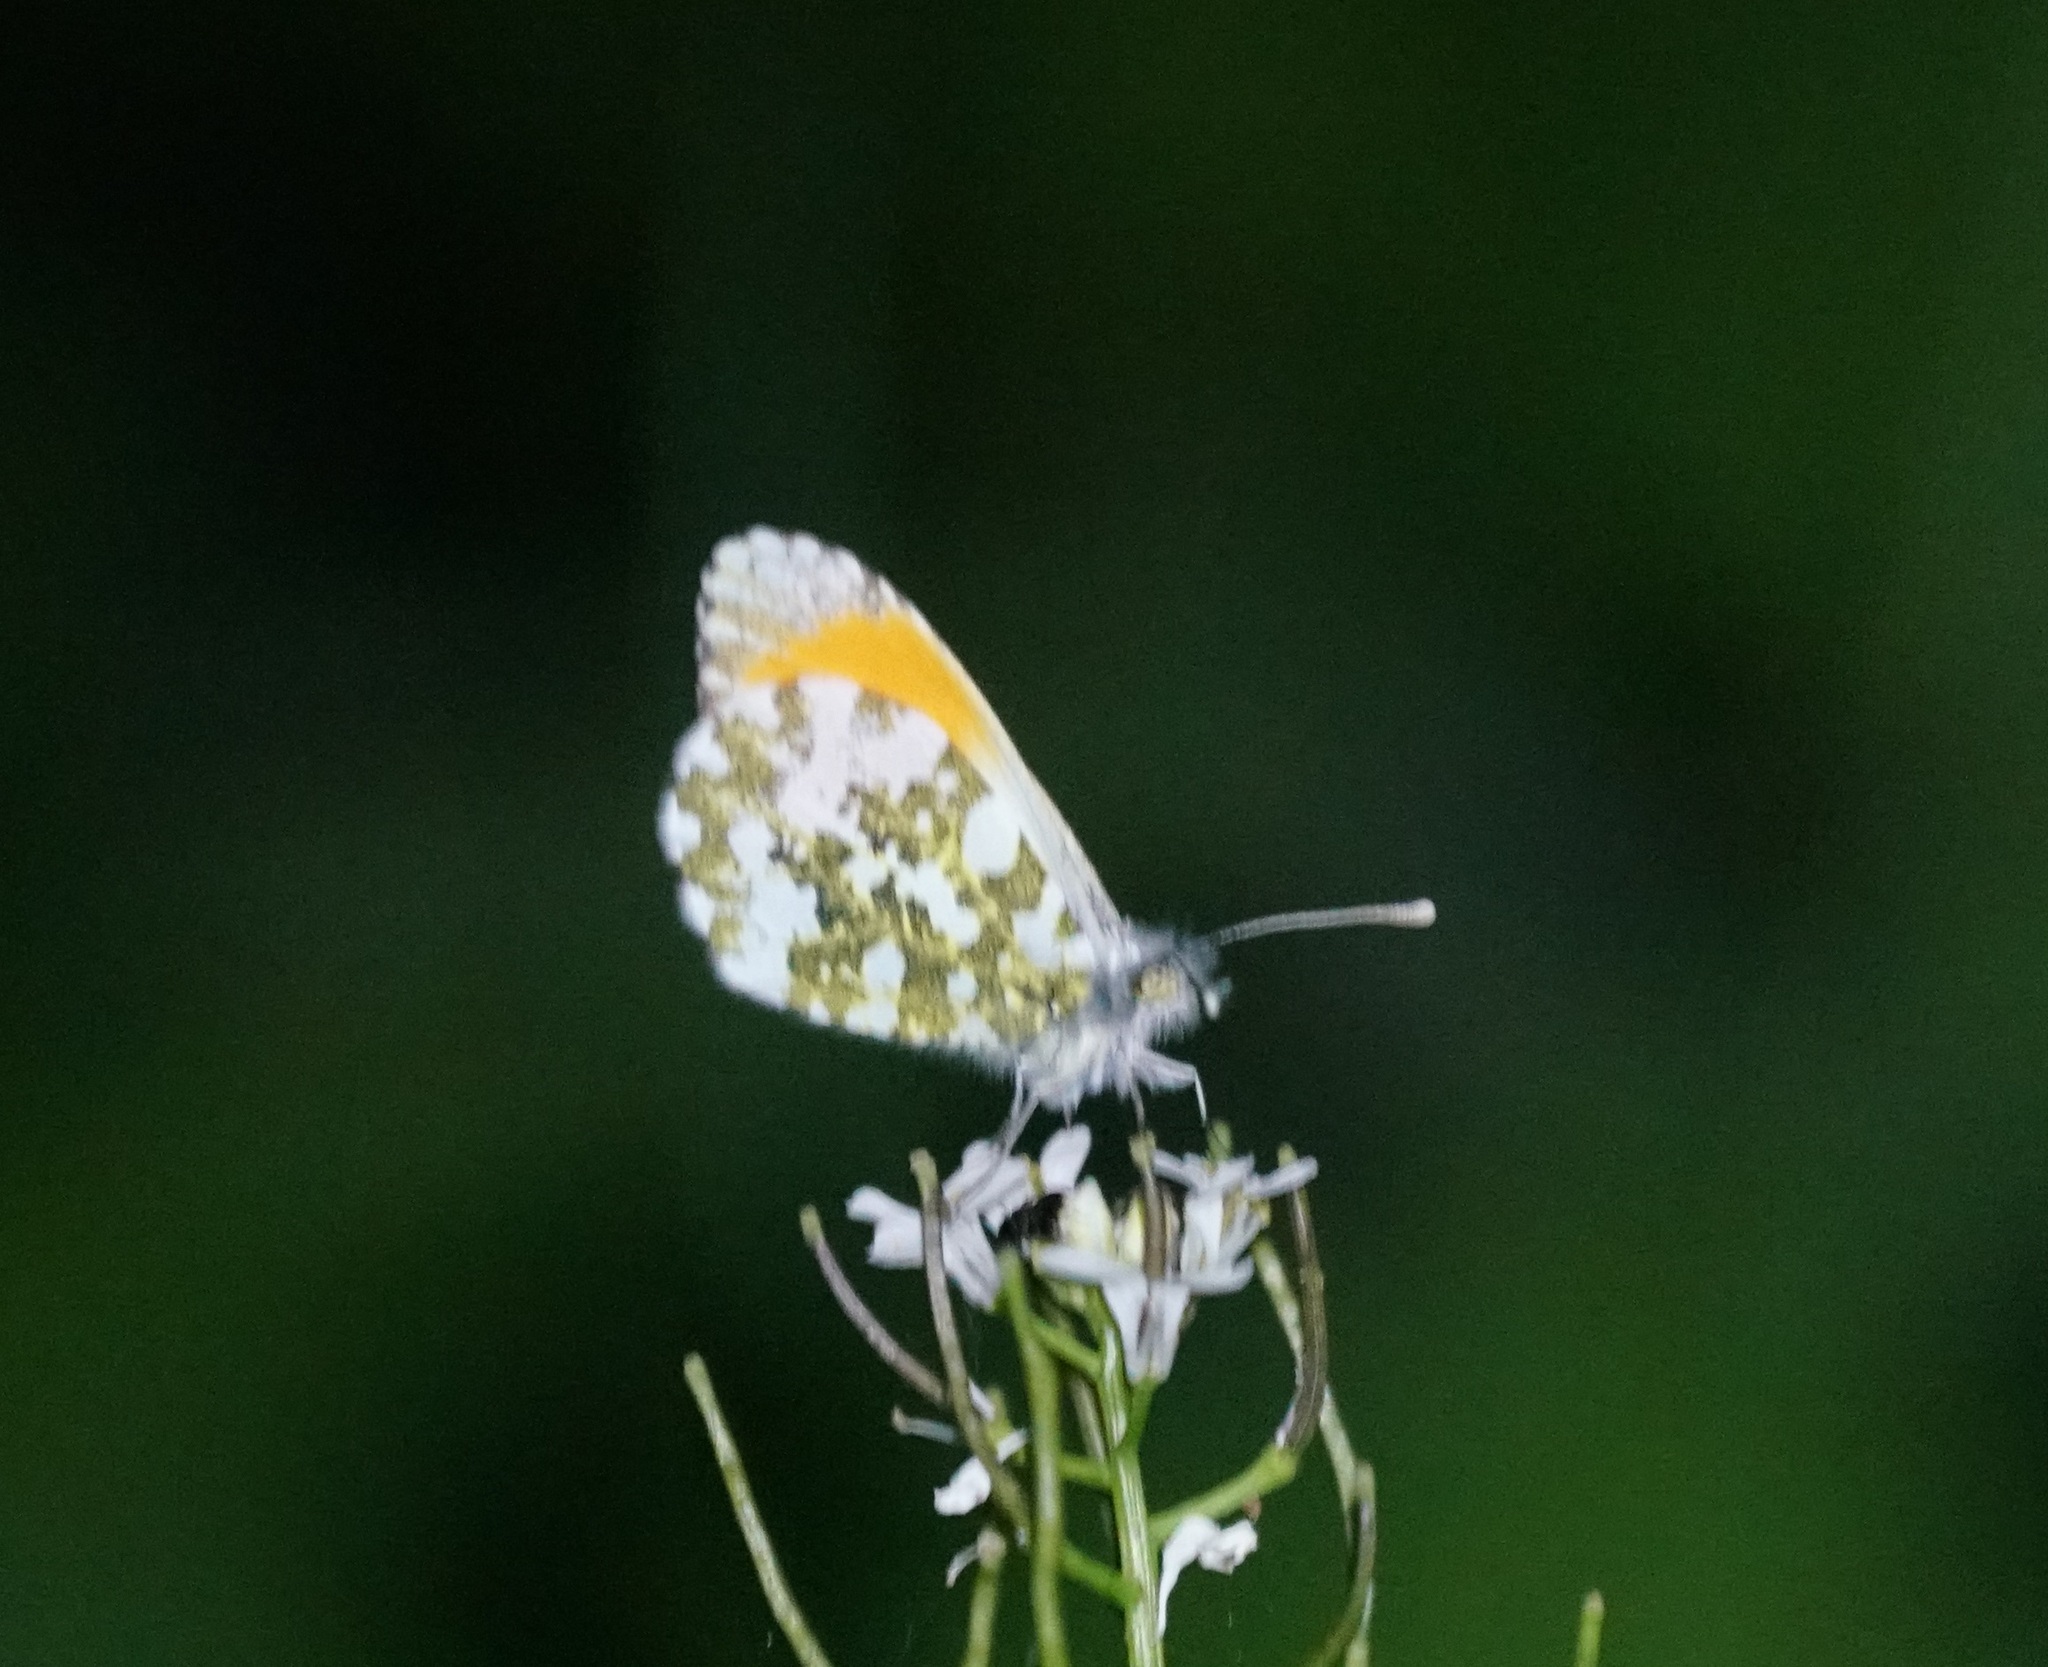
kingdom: Animalia
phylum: Arthropoda
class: Insecta
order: Lepidoptera
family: Pieridae
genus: Anthocharis
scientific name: Anthocharis cardamines
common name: Orange-tip
